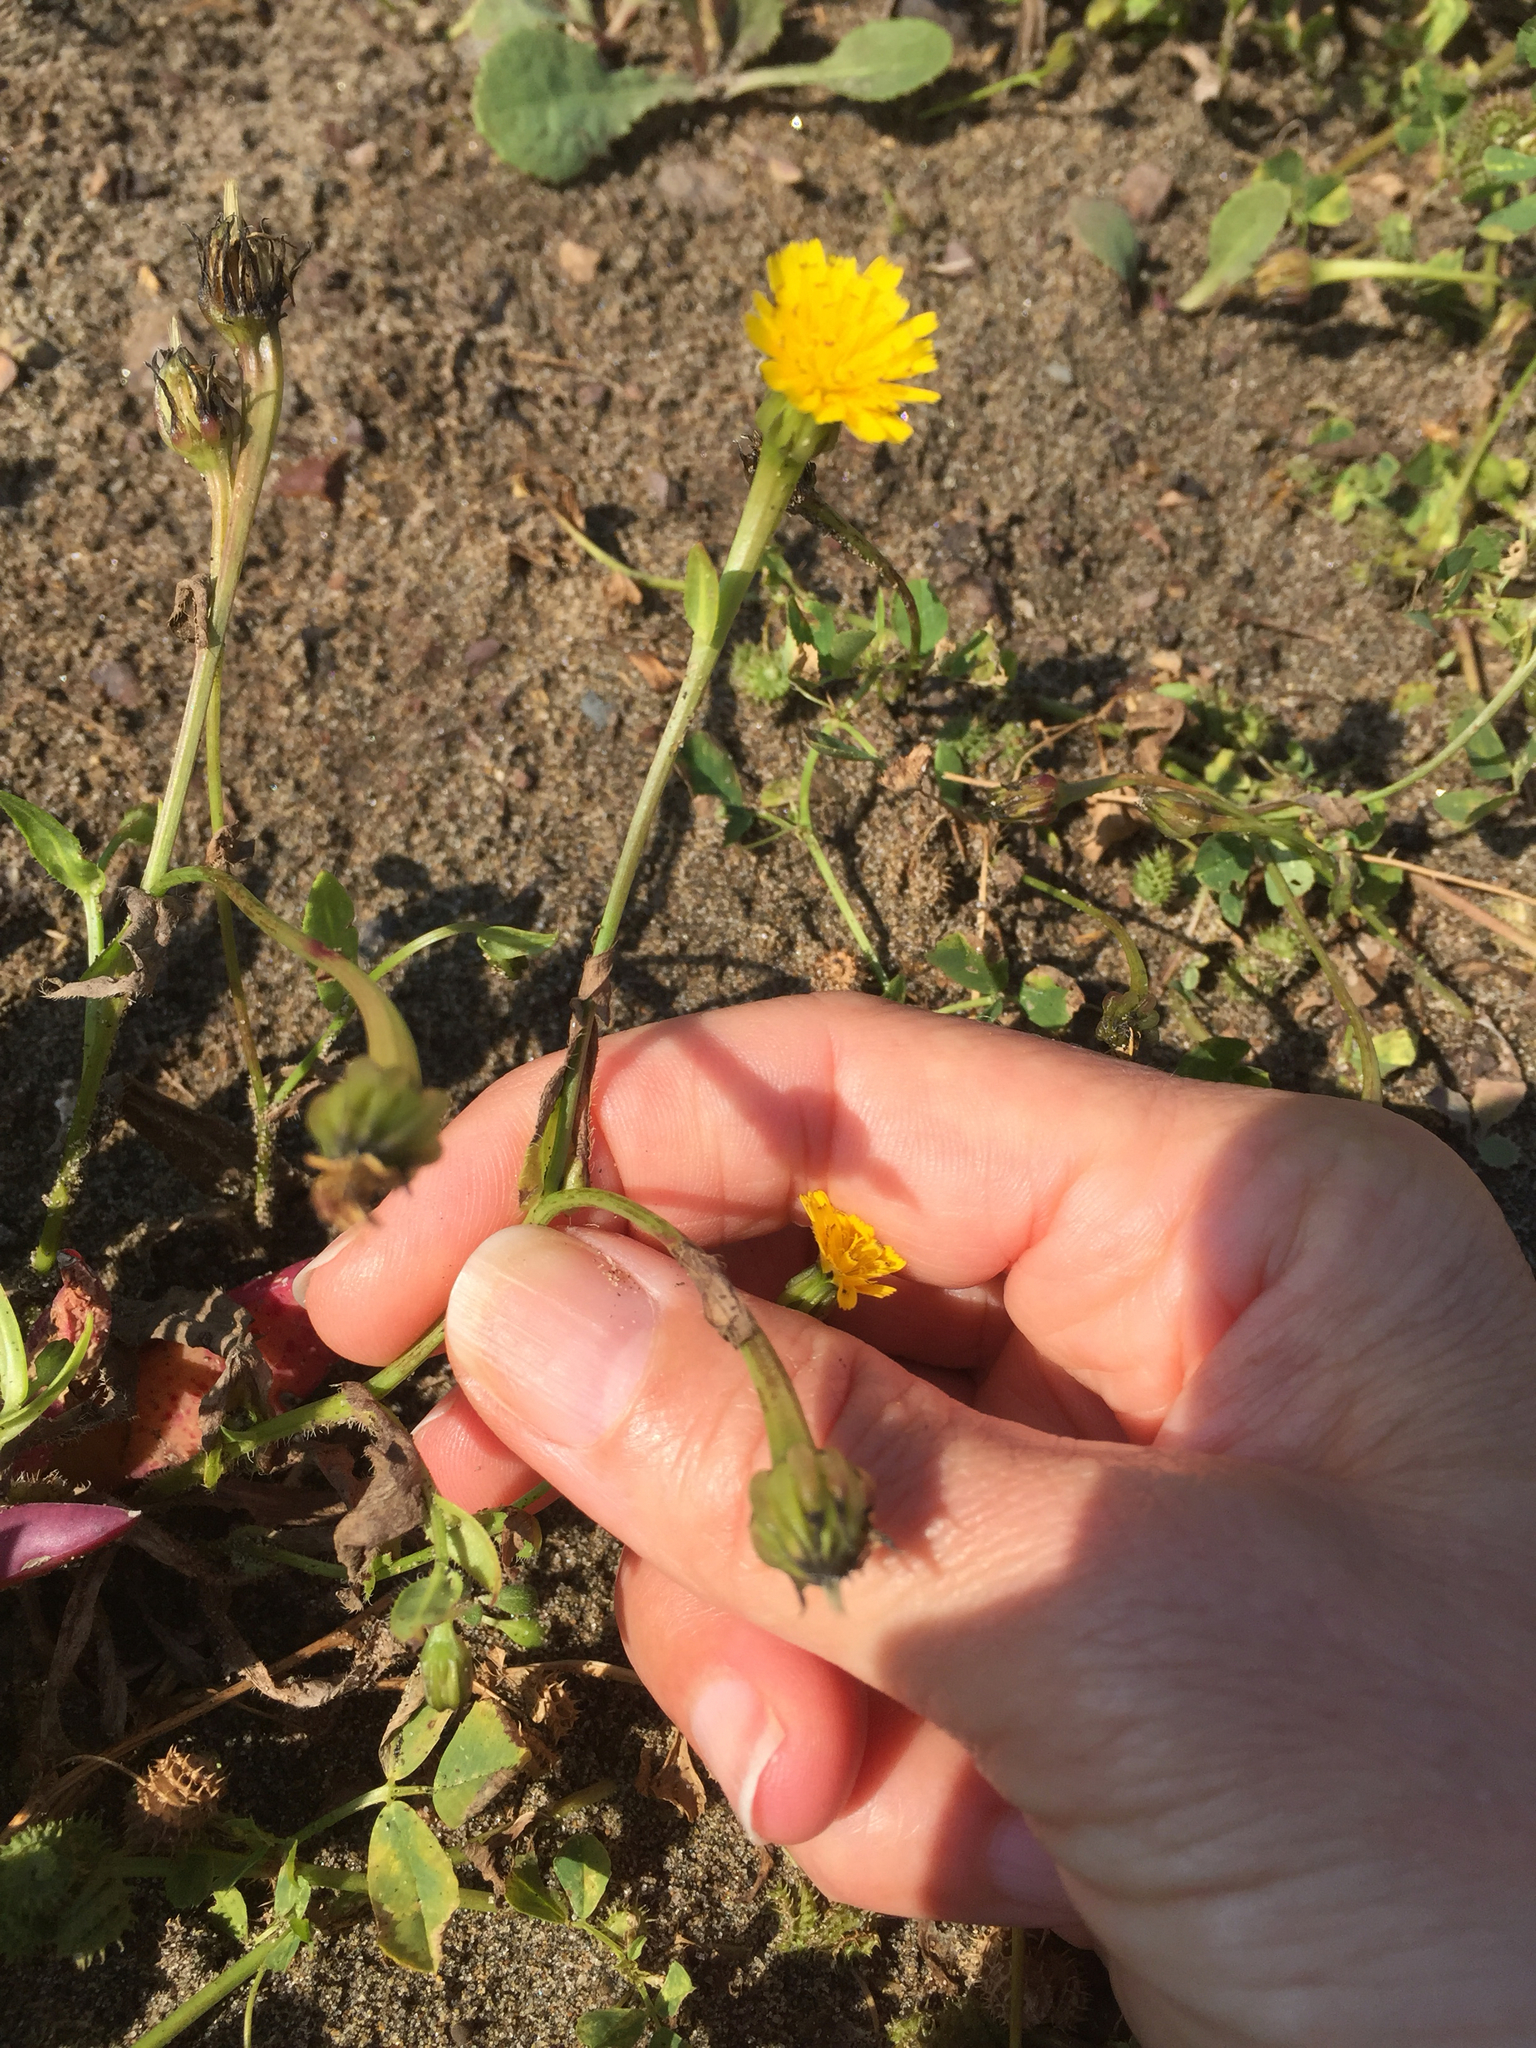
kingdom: Plantae
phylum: Tracheophyta
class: Magnoliopsida
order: Asterales
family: Asteraceae
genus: Hedypnois
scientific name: Hedypnois rhagadioloides
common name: Cretan weed
